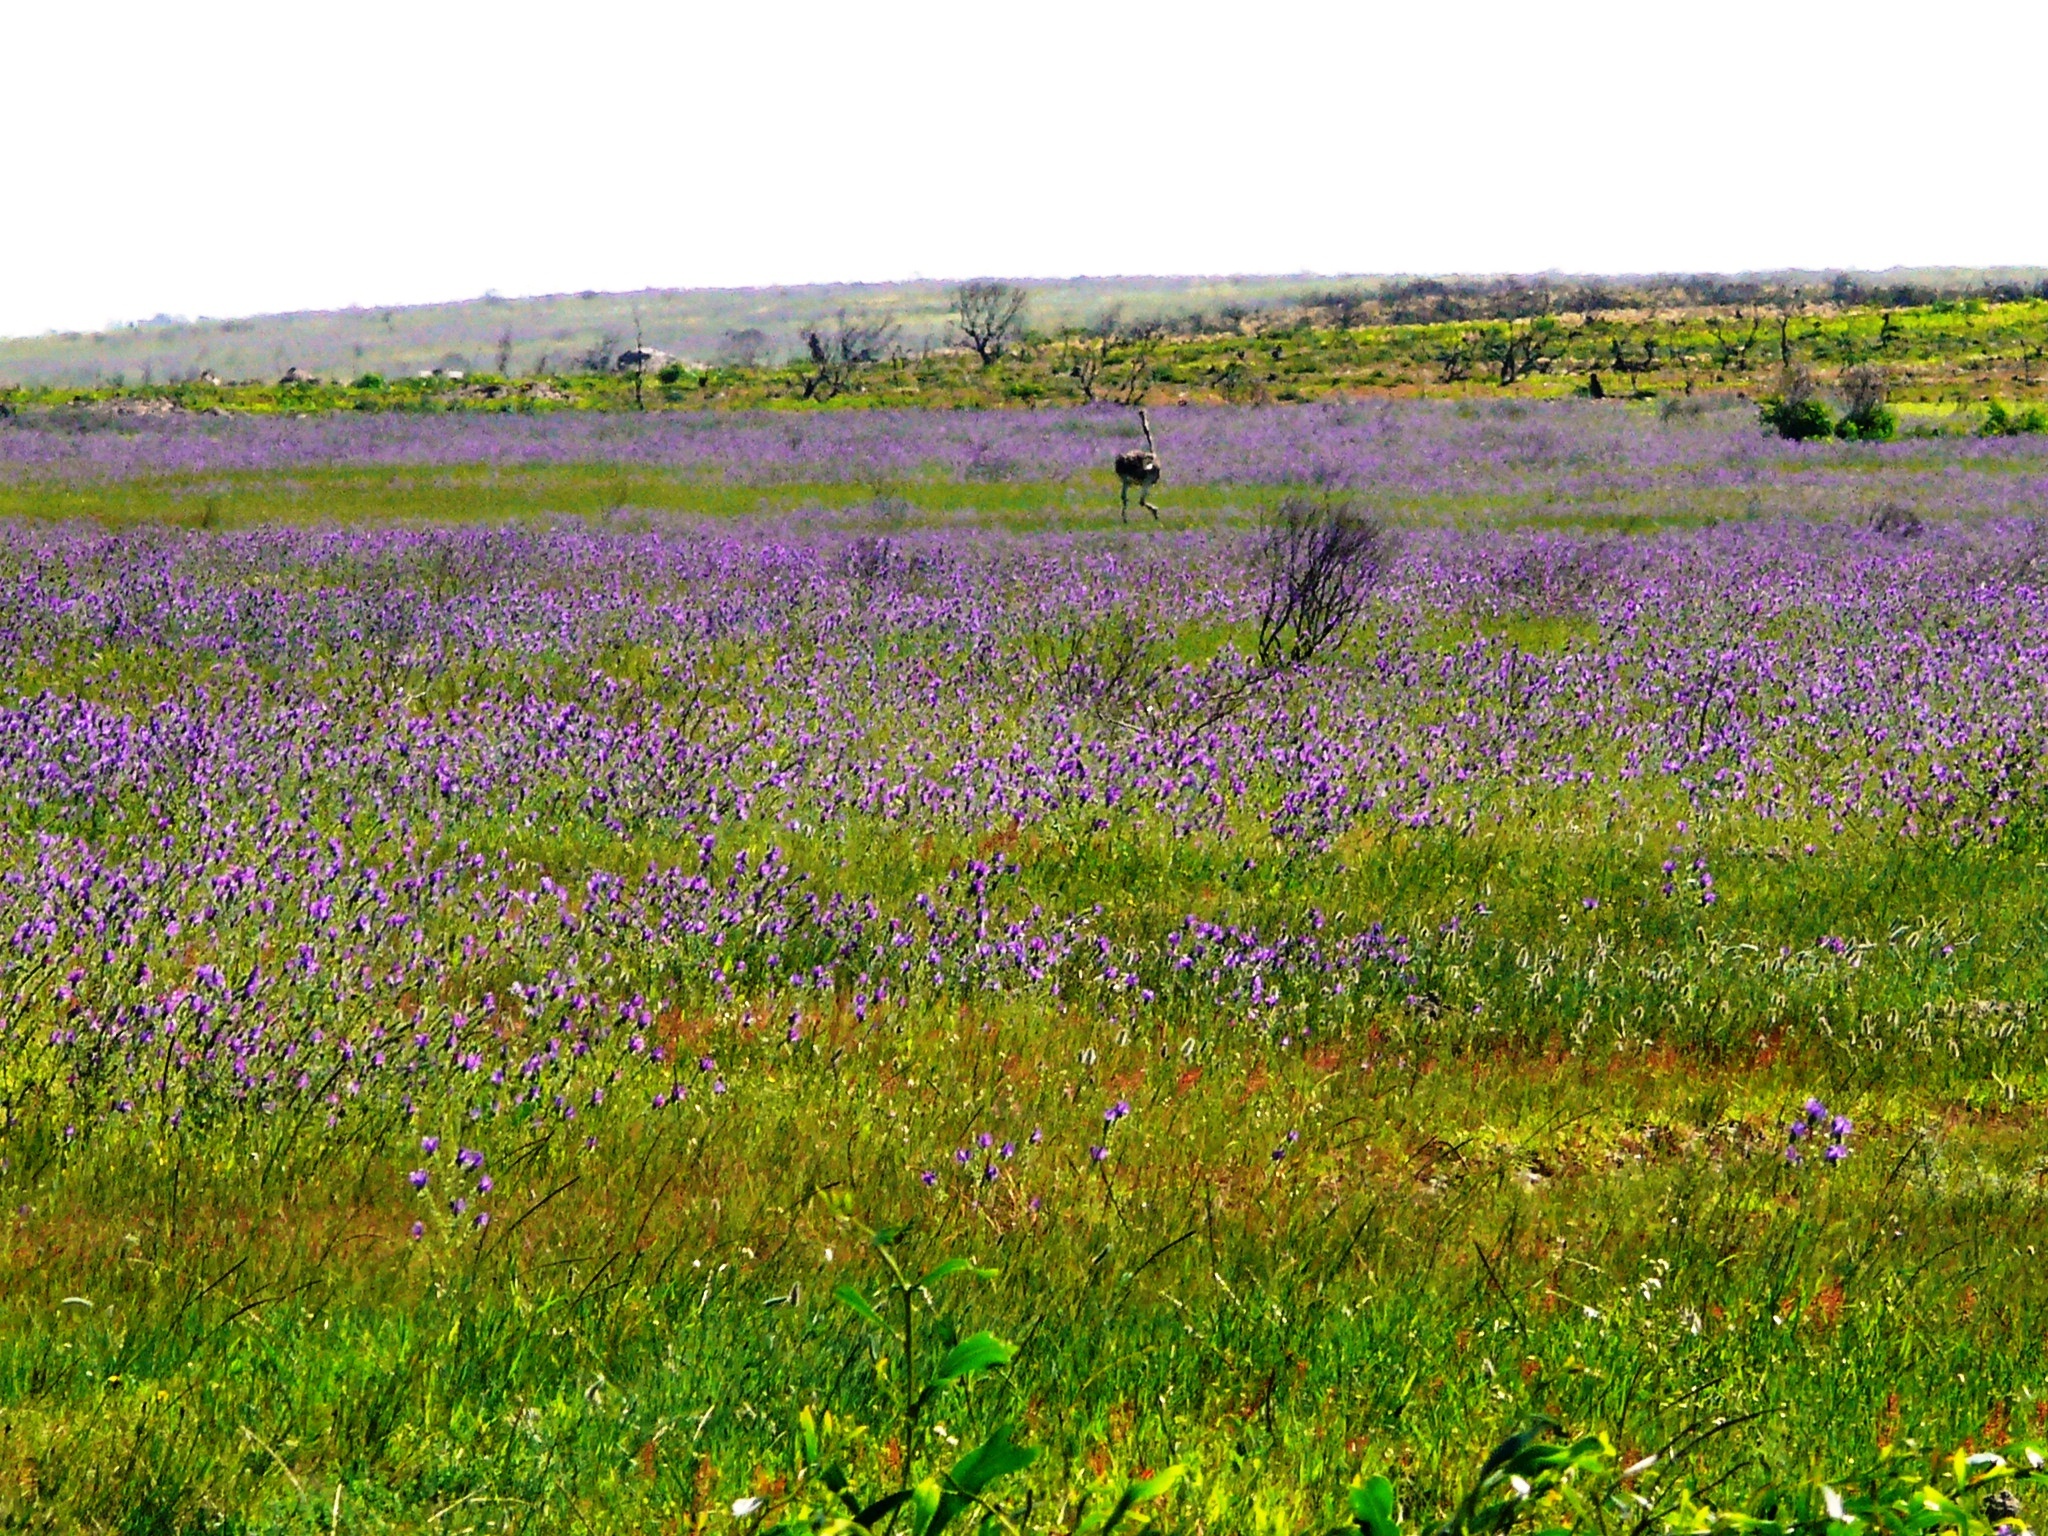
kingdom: Plantae
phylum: Tracheophyta
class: Magnoliopsida
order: Boraginales
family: Boraginaceae
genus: Echium
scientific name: Echium plantagineum
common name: Purple viper's-bugloss
